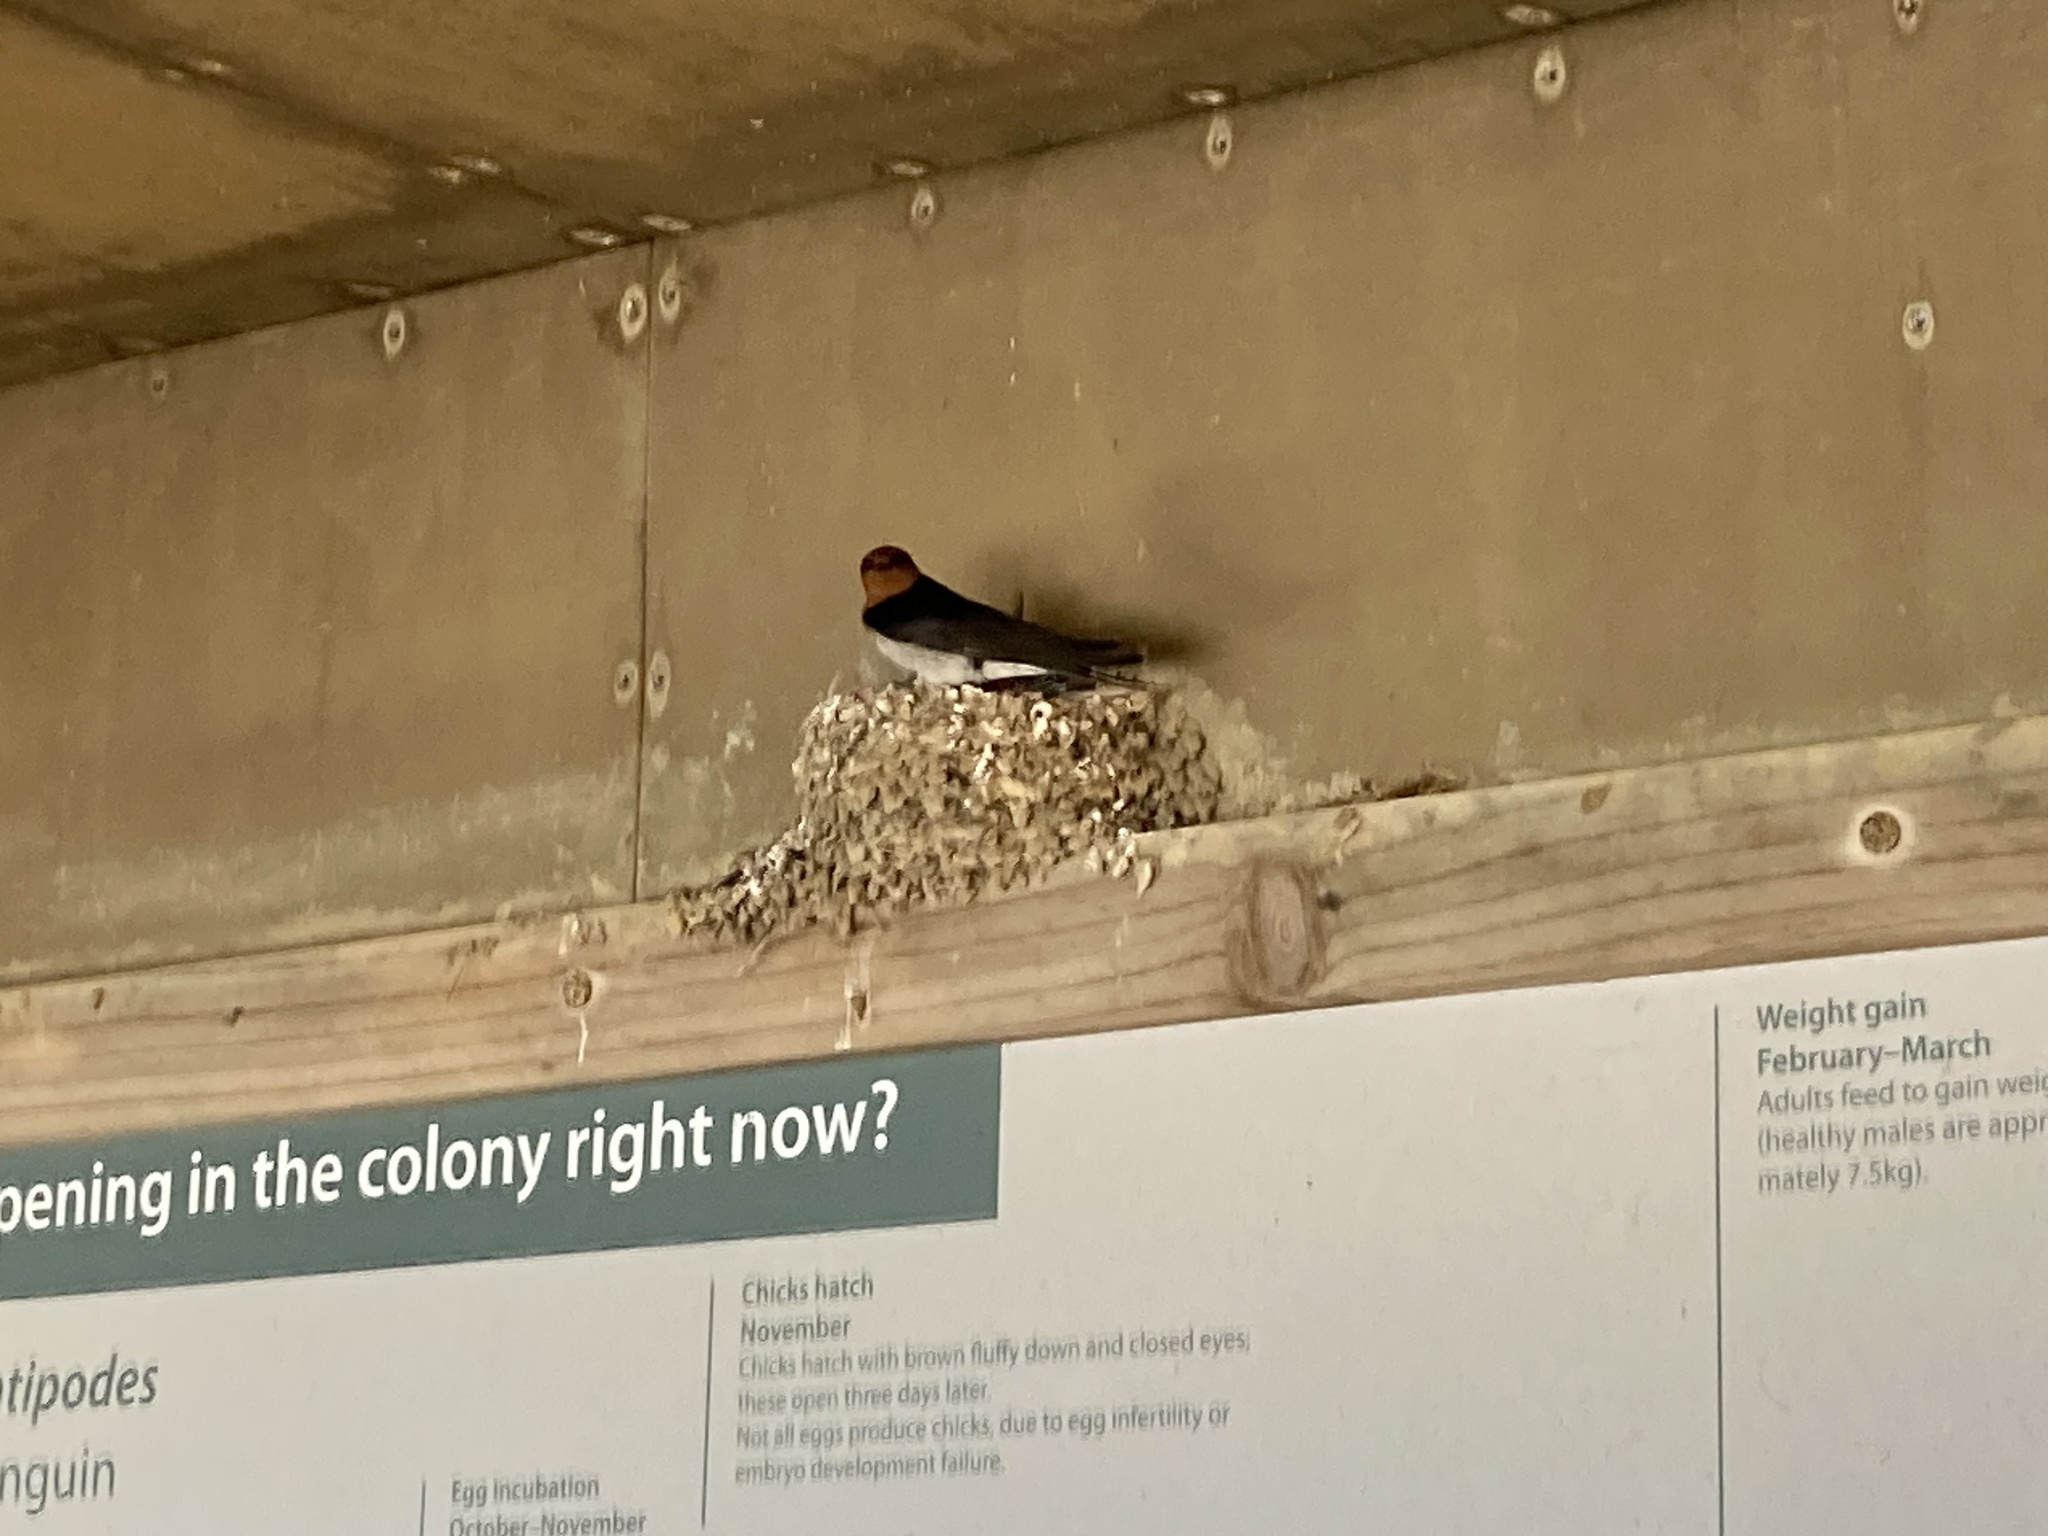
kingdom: Animalia
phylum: Chordata
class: Aves
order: Passeriformes
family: Hirundinidae
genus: Hirundo
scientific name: Hirundo neoxena
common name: Welcome swallow
